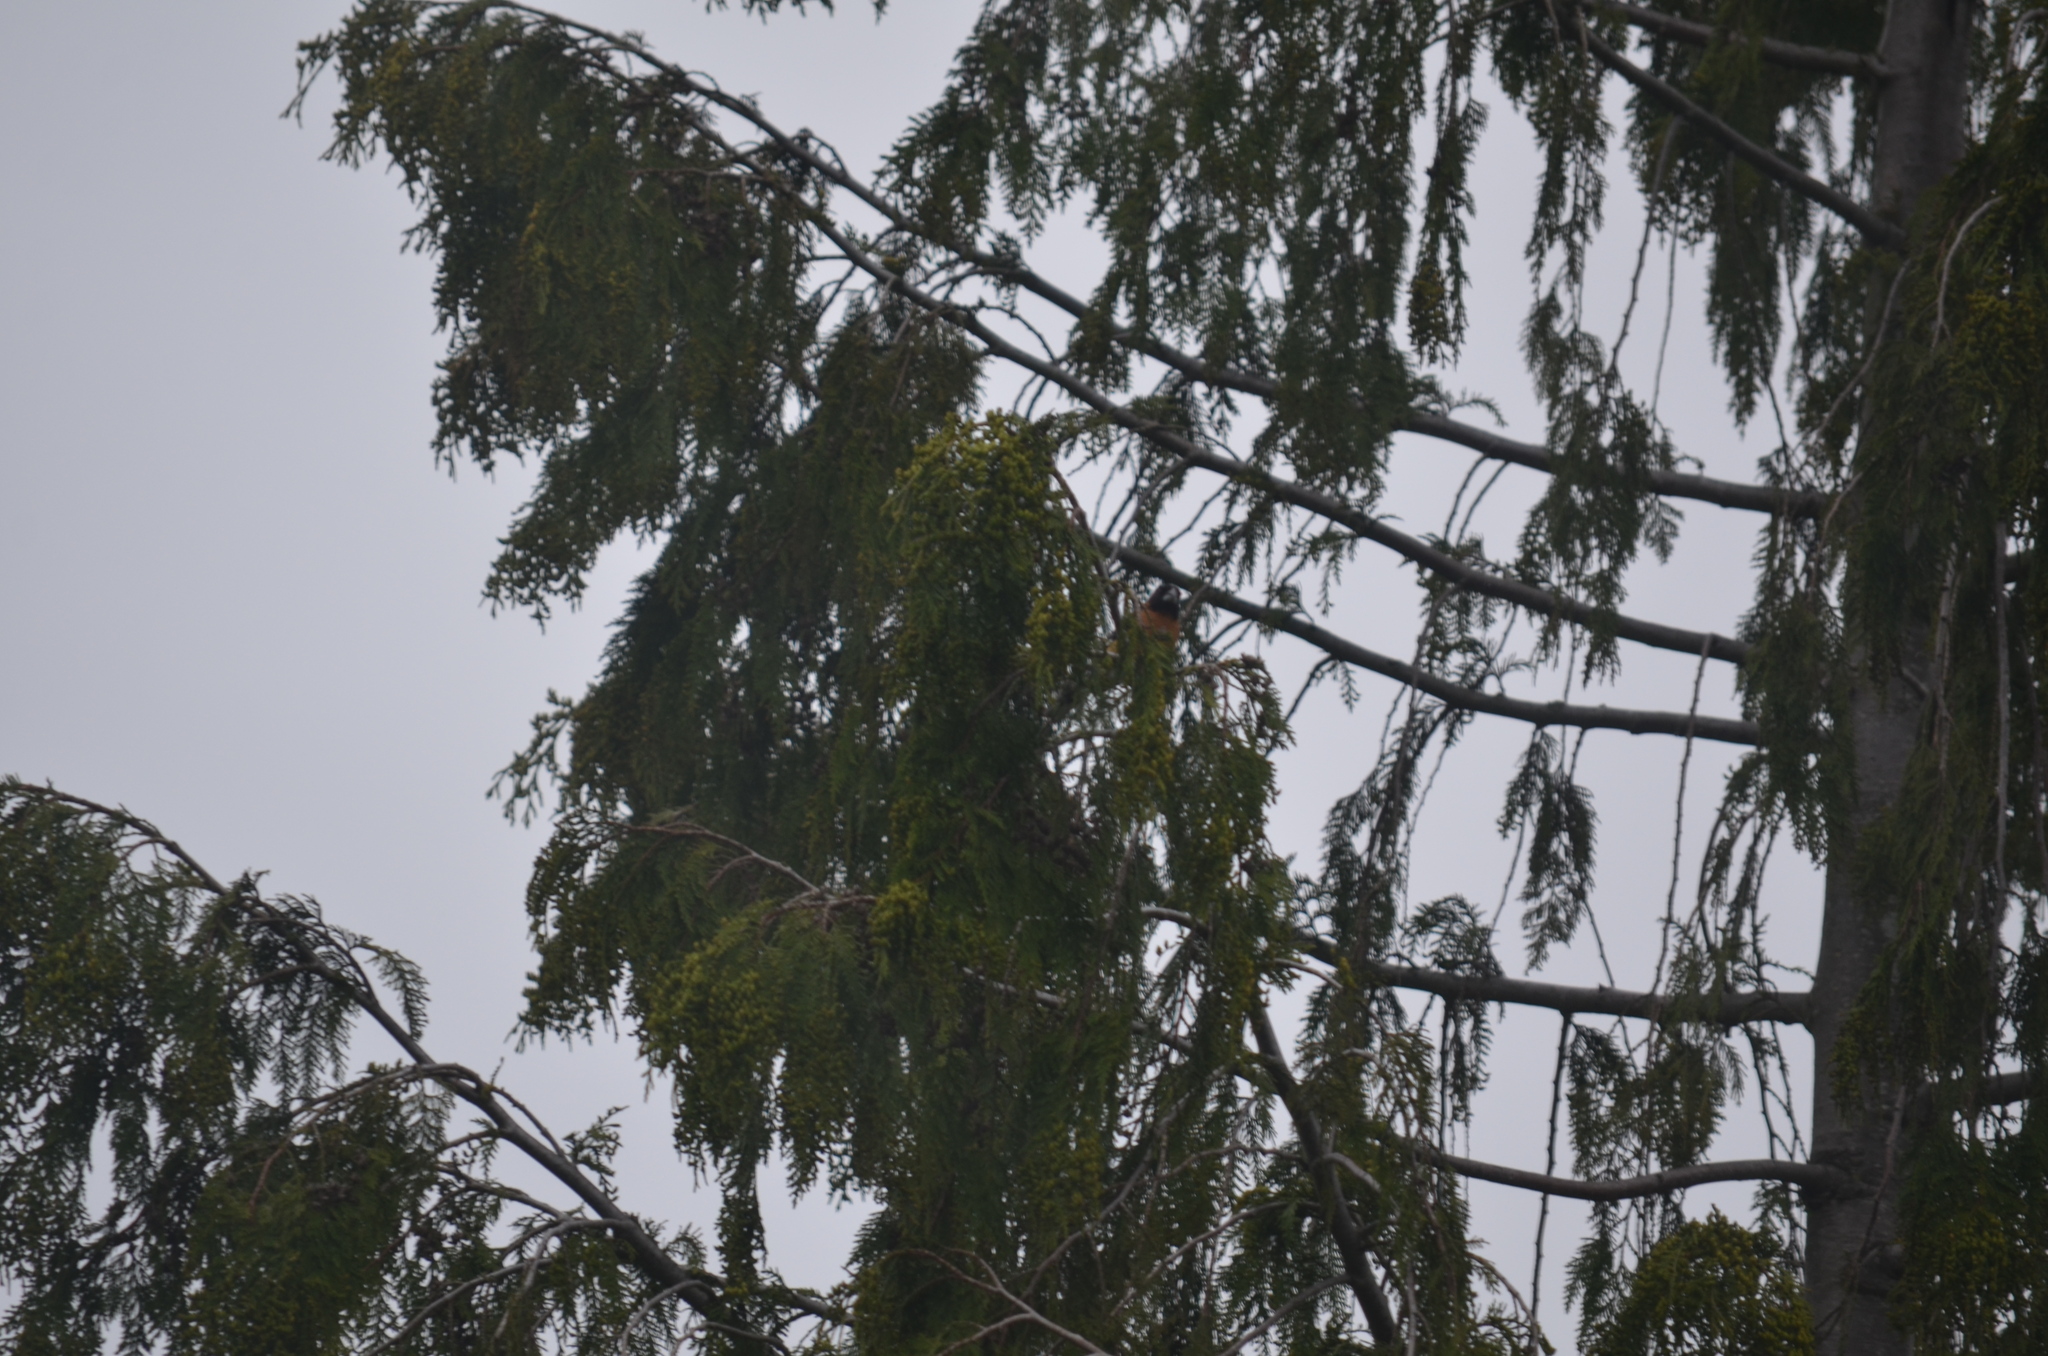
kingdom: Animalia
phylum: Chordata
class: Aves
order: Passeriformes
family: Cardinalidae
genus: Pheucticus
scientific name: Pheucticus melanocephalus
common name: Black-headed grosbeak
